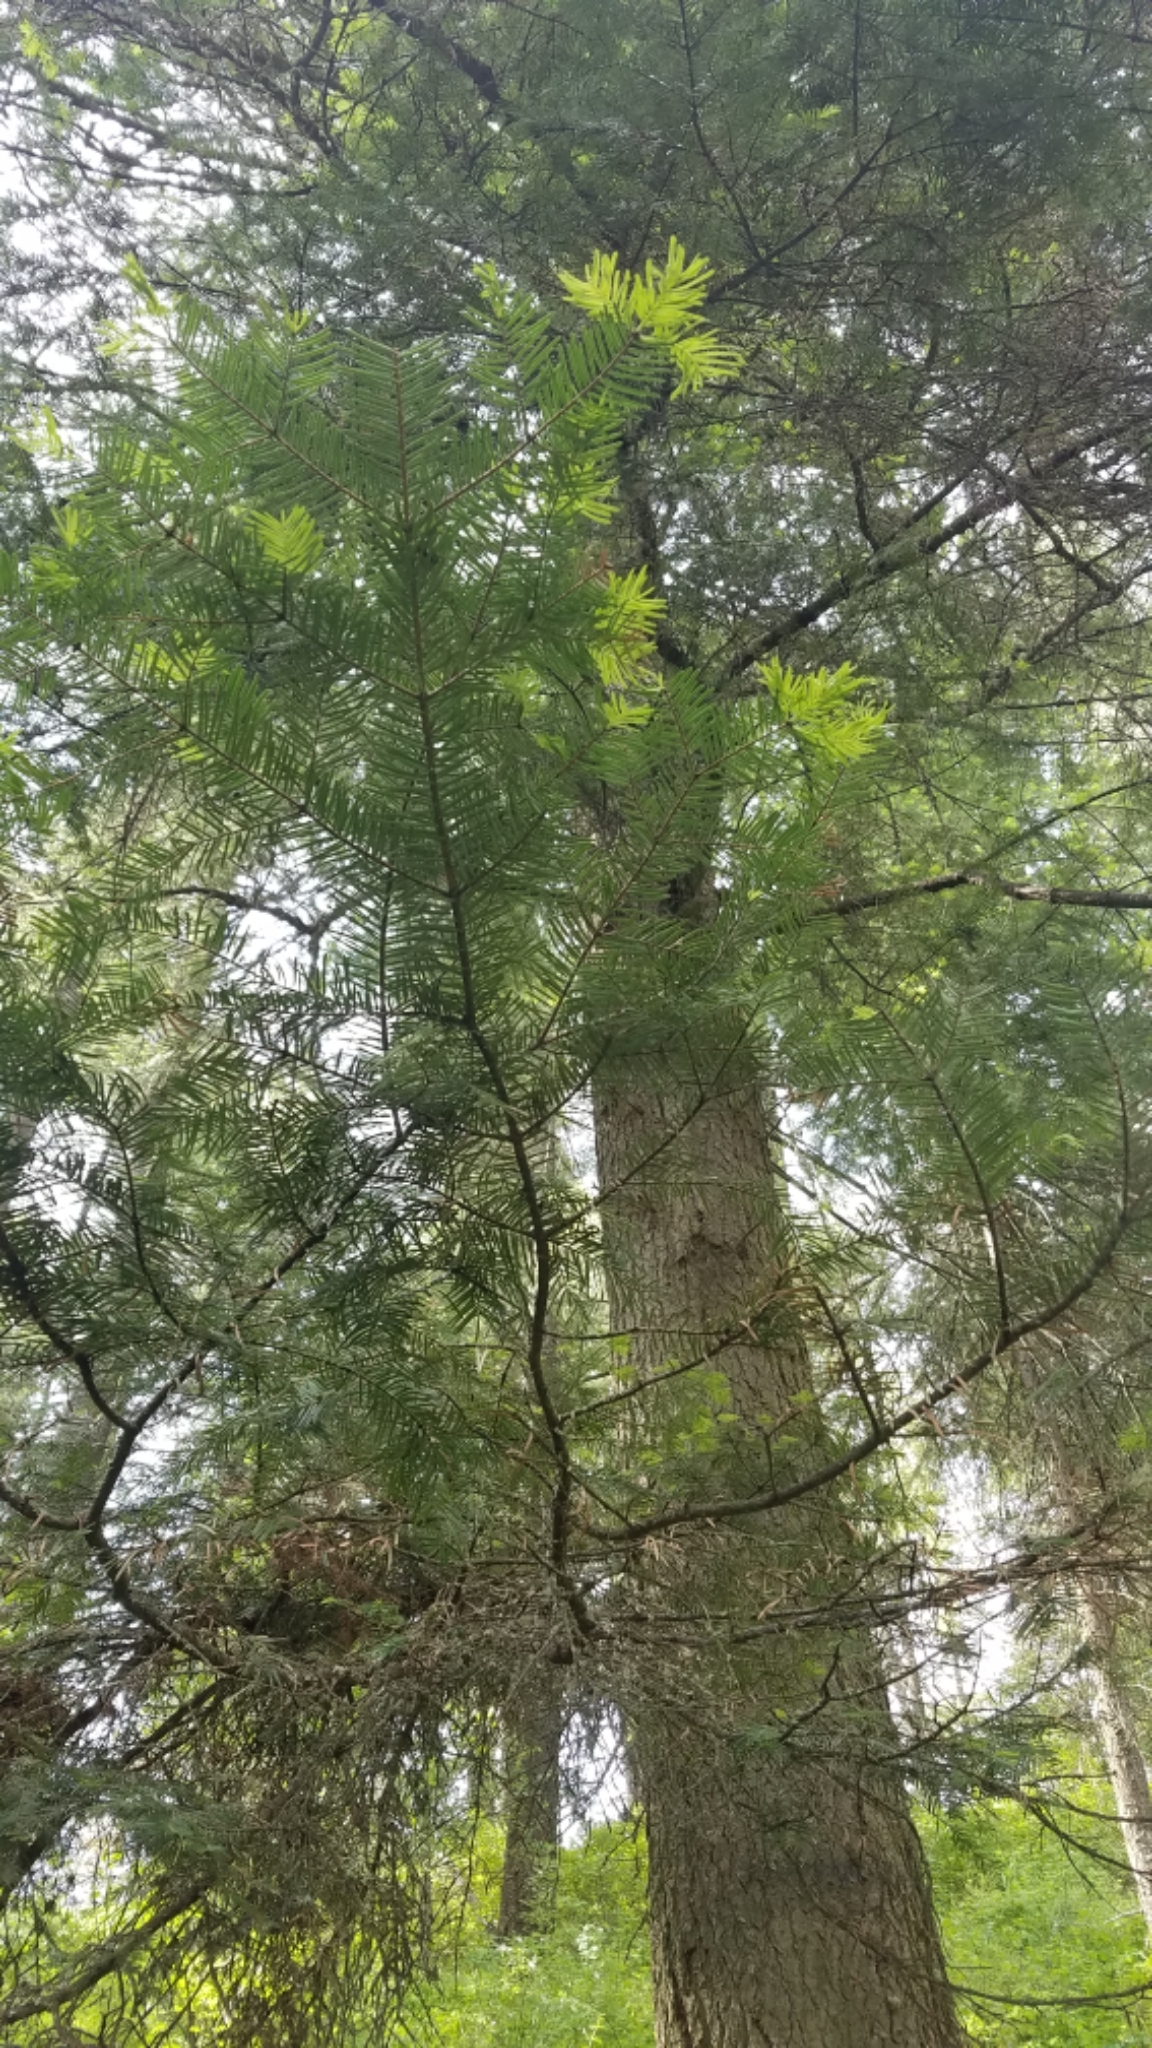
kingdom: Plantae
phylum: Tracheophyta
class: Pinopsida
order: Pinales
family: Pinaceae
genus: Abies
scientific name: Abies grandis
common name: Giant fir
